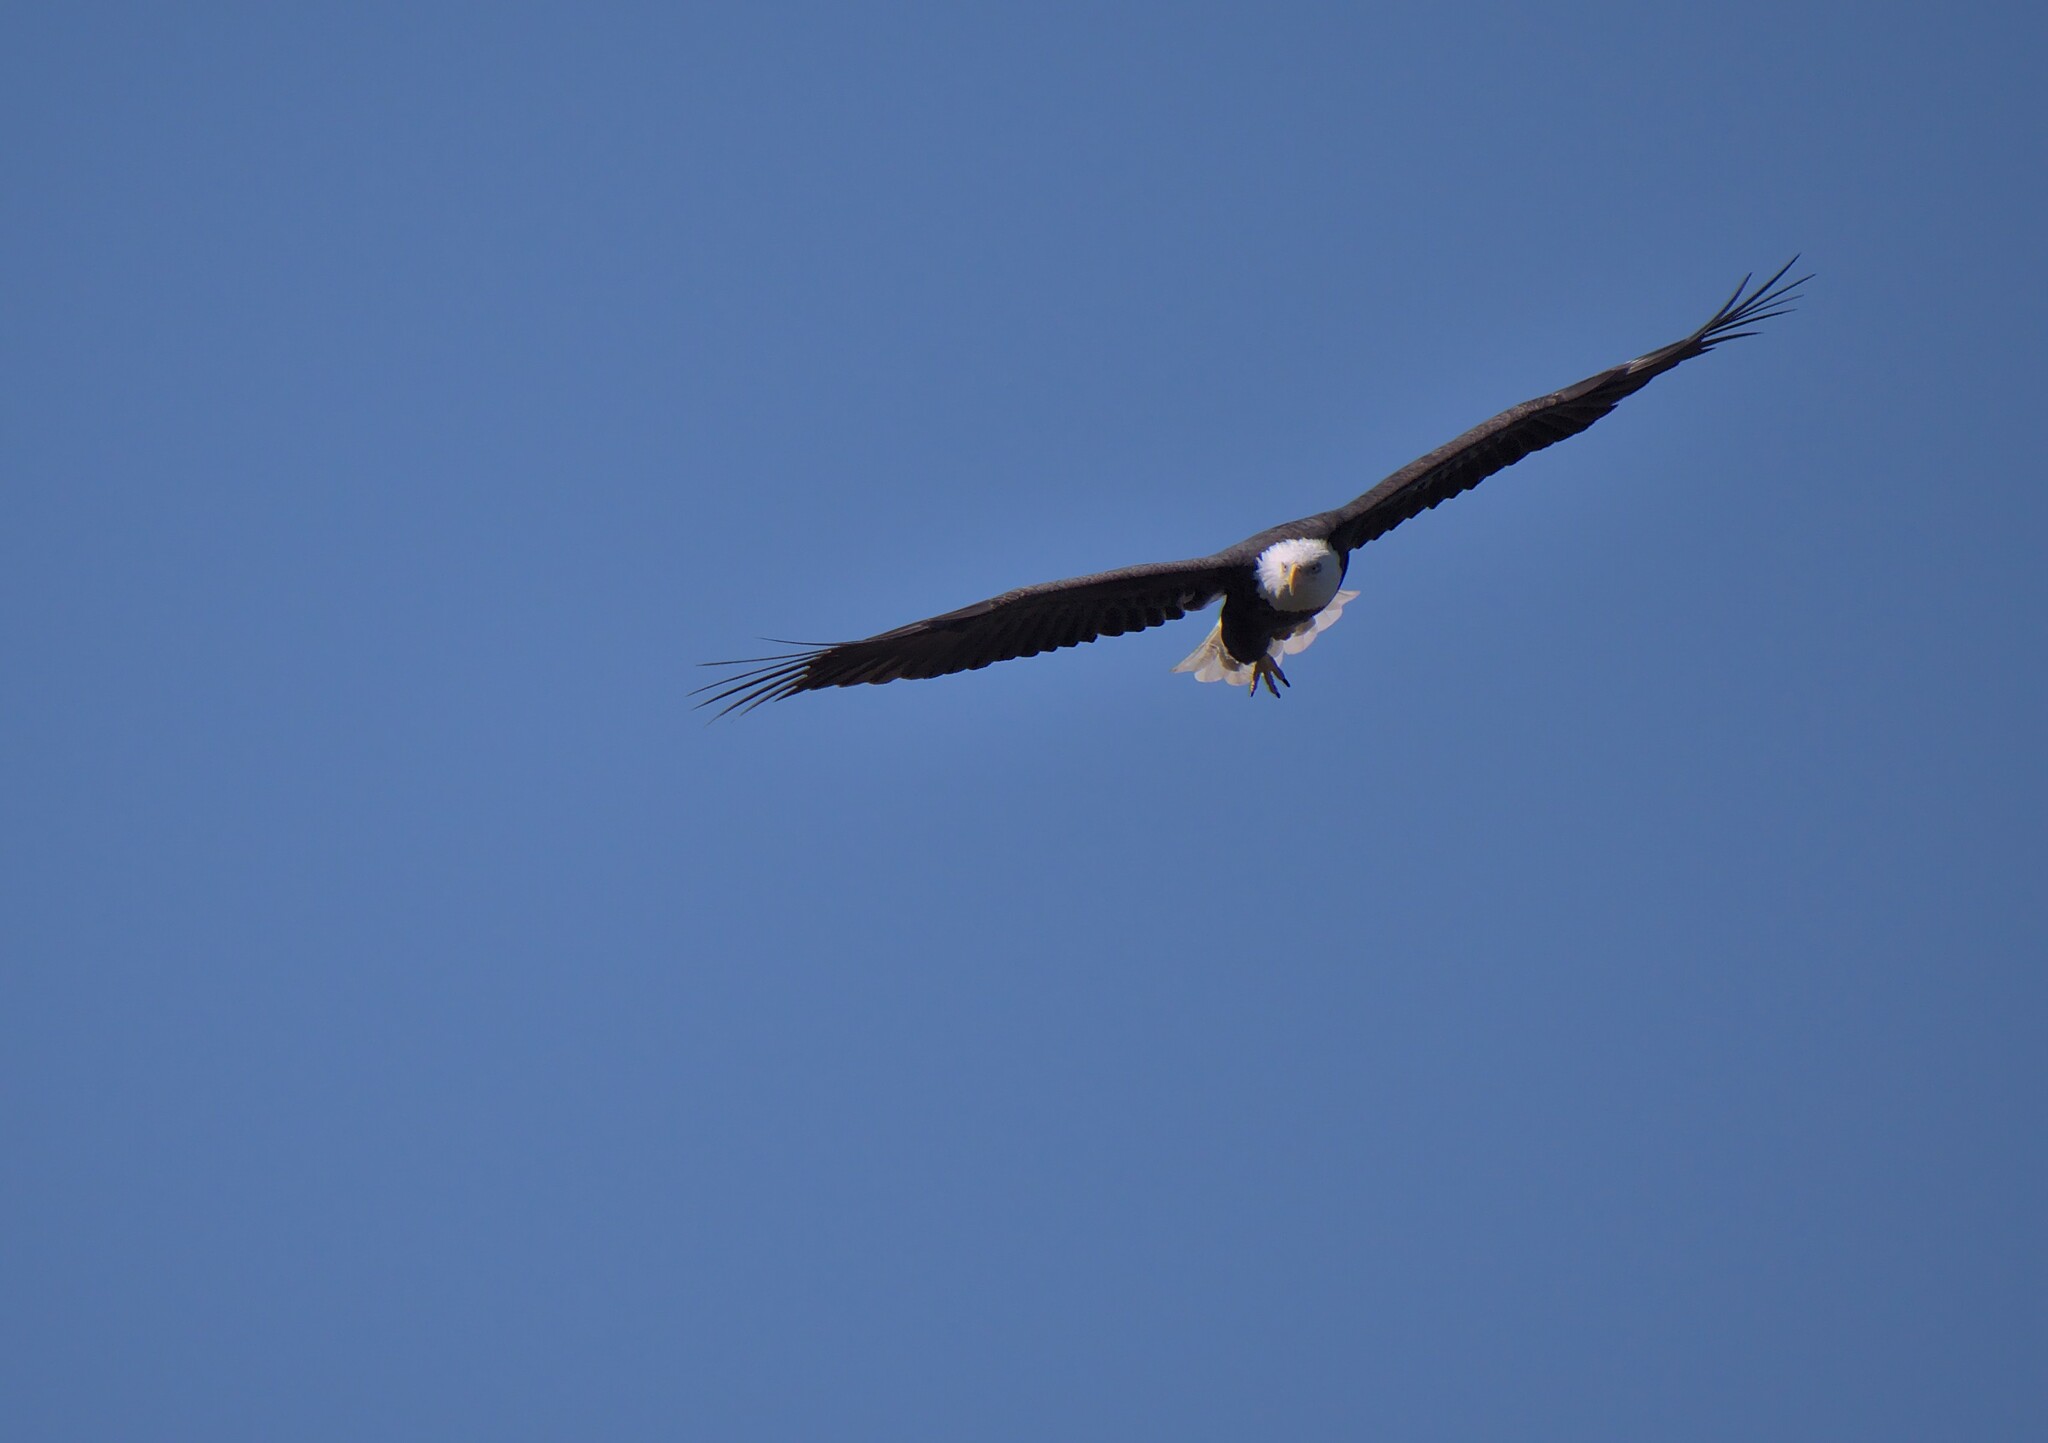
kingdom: Animalia
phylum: Chordata
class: Aves
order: Accipitriformes
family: Accipitridae
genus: Haliaeetus
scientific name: Haliaeetus leucocephalus
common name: Bald eagle
